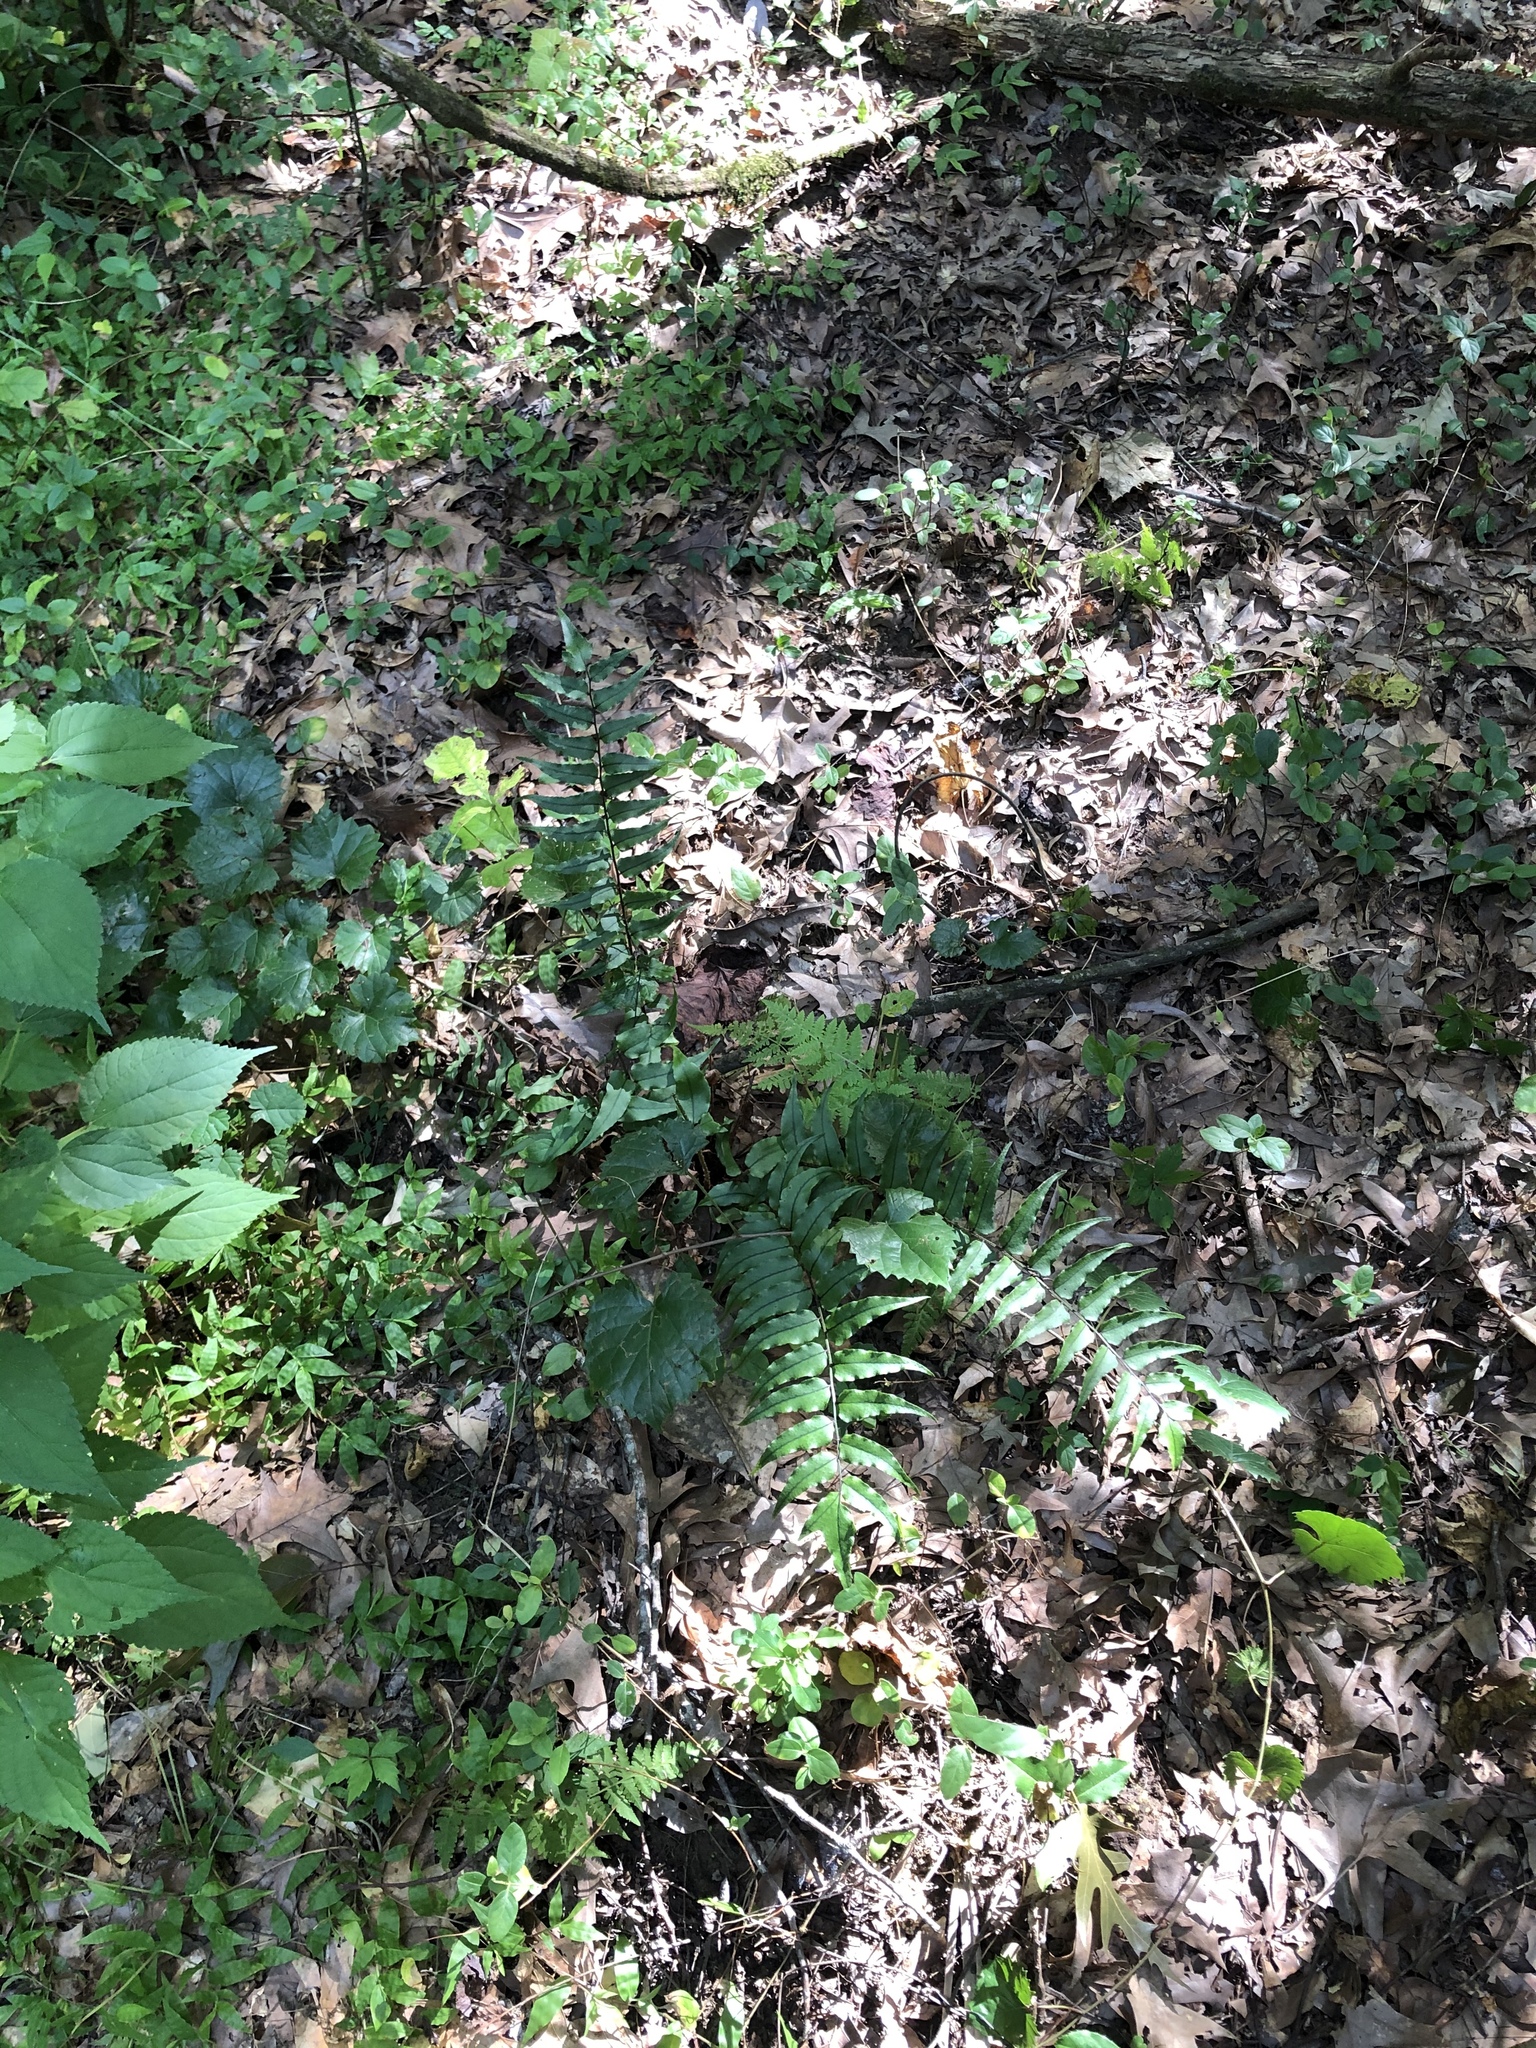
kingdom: Plantae
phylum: Tracheophyta
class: Polypodiopsida
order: Polypodiales
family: Dryopteridaceae
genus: Cyrtomium
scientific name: Cyrtomium fortunei
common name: Asian netvein hollyfern
